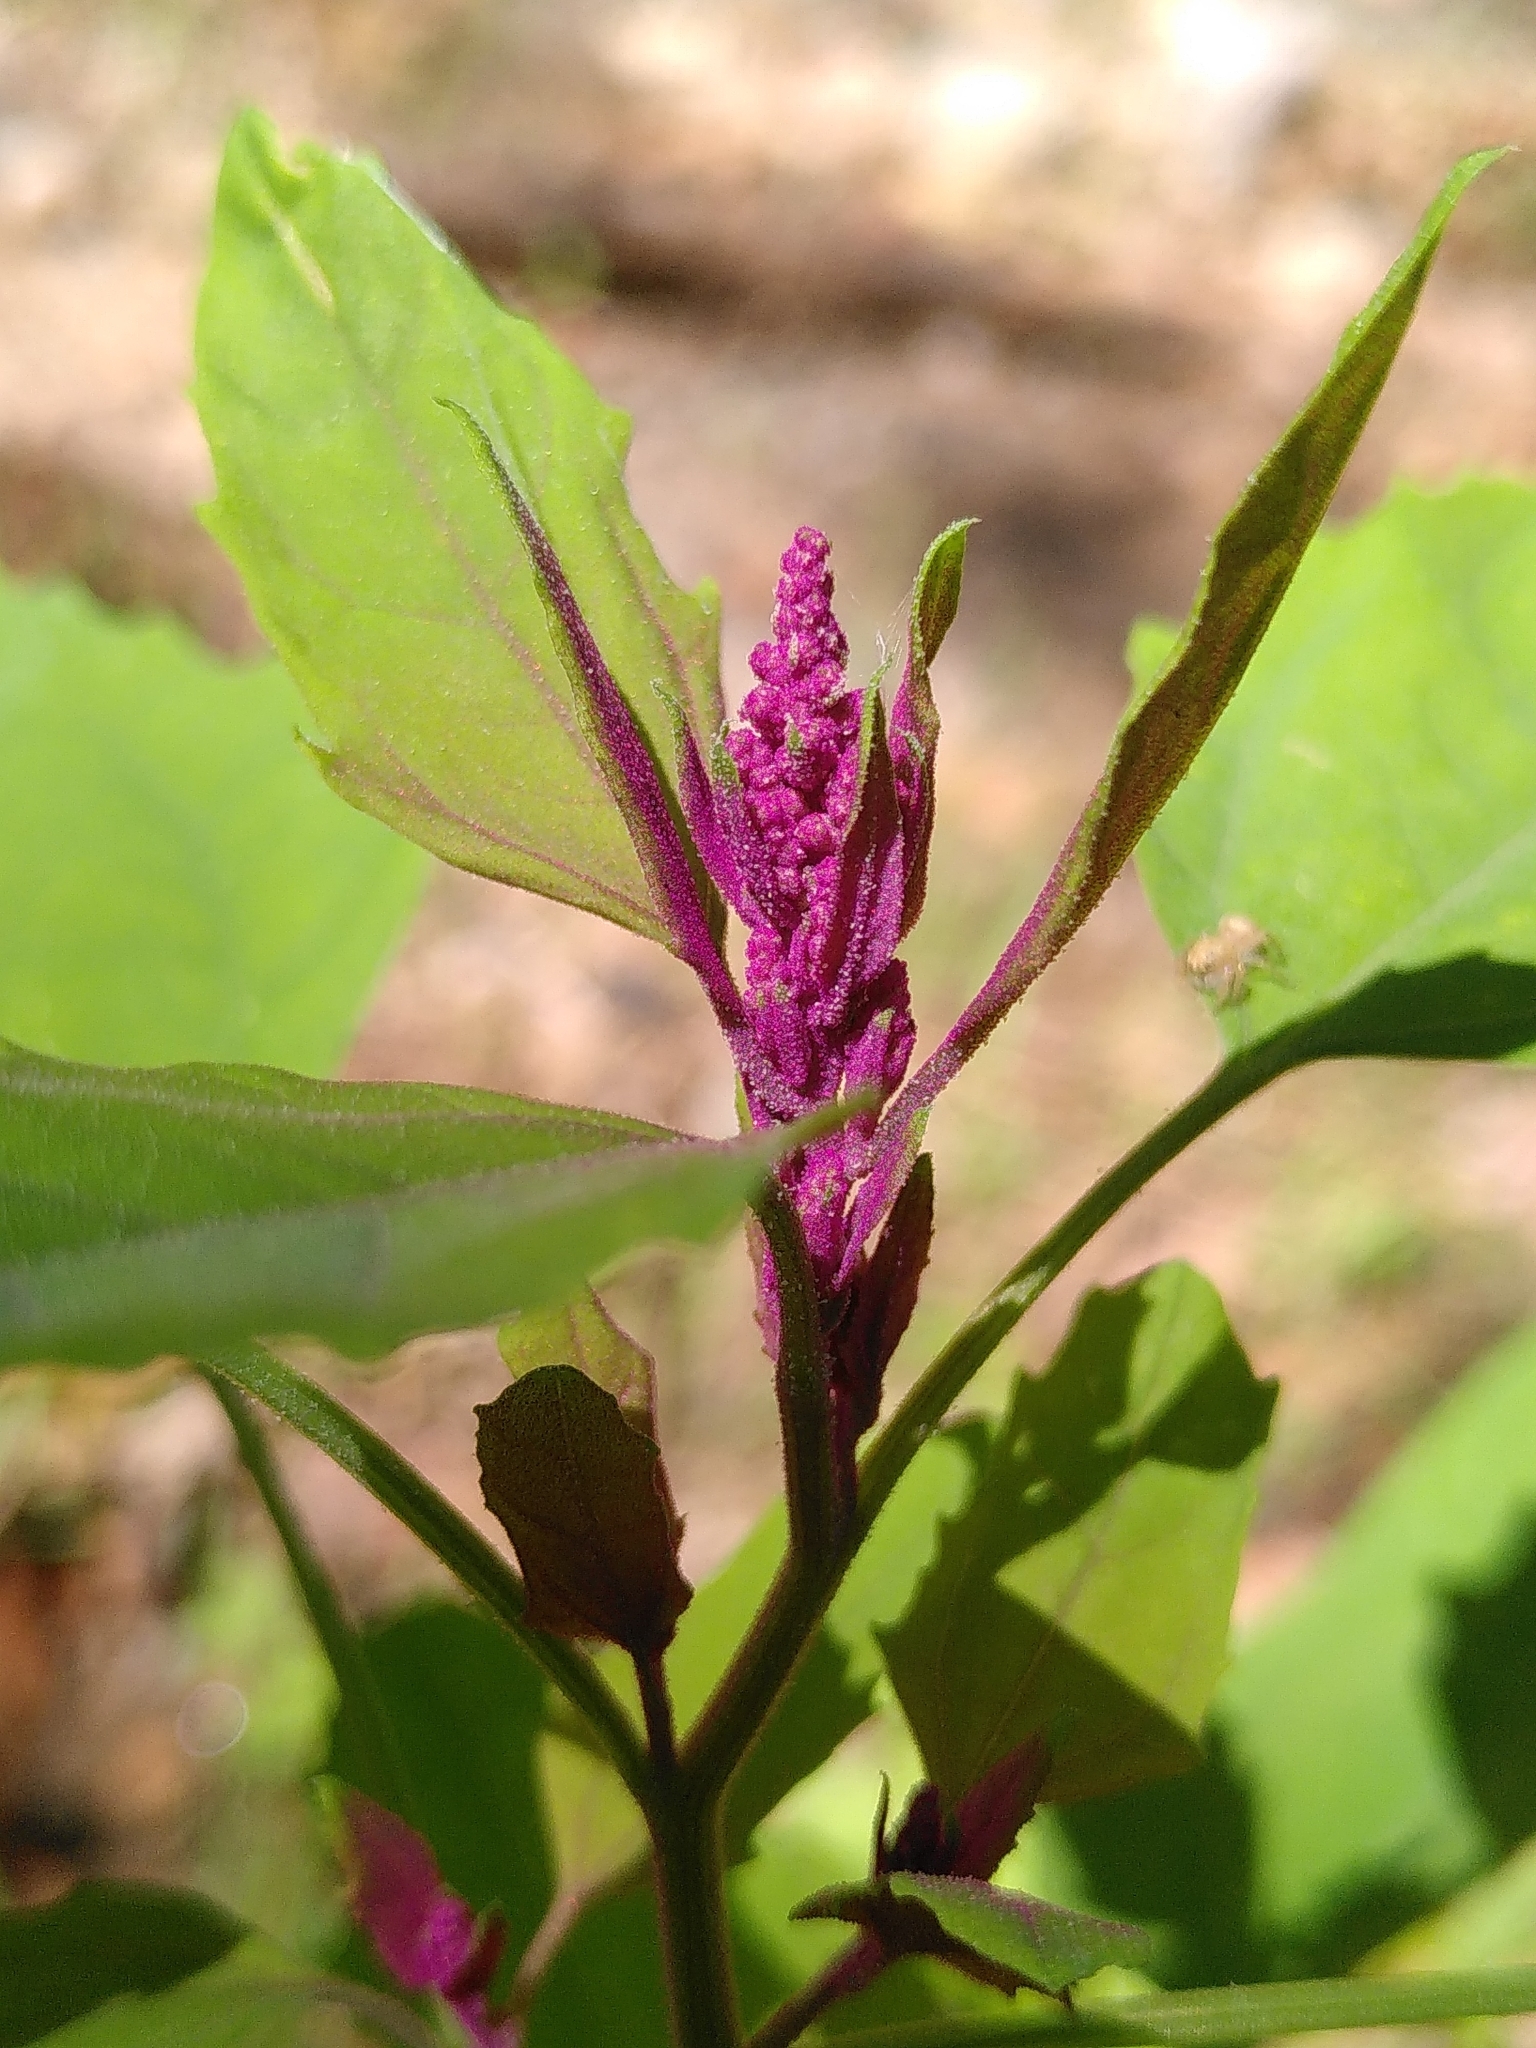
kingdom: Plantae
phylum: Tracheophyta
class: Magnoliopsida
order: Caryophyllales
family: Amaranthaceae
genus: Chenopodium
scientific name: Chenopodium album
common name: Fat-hen
